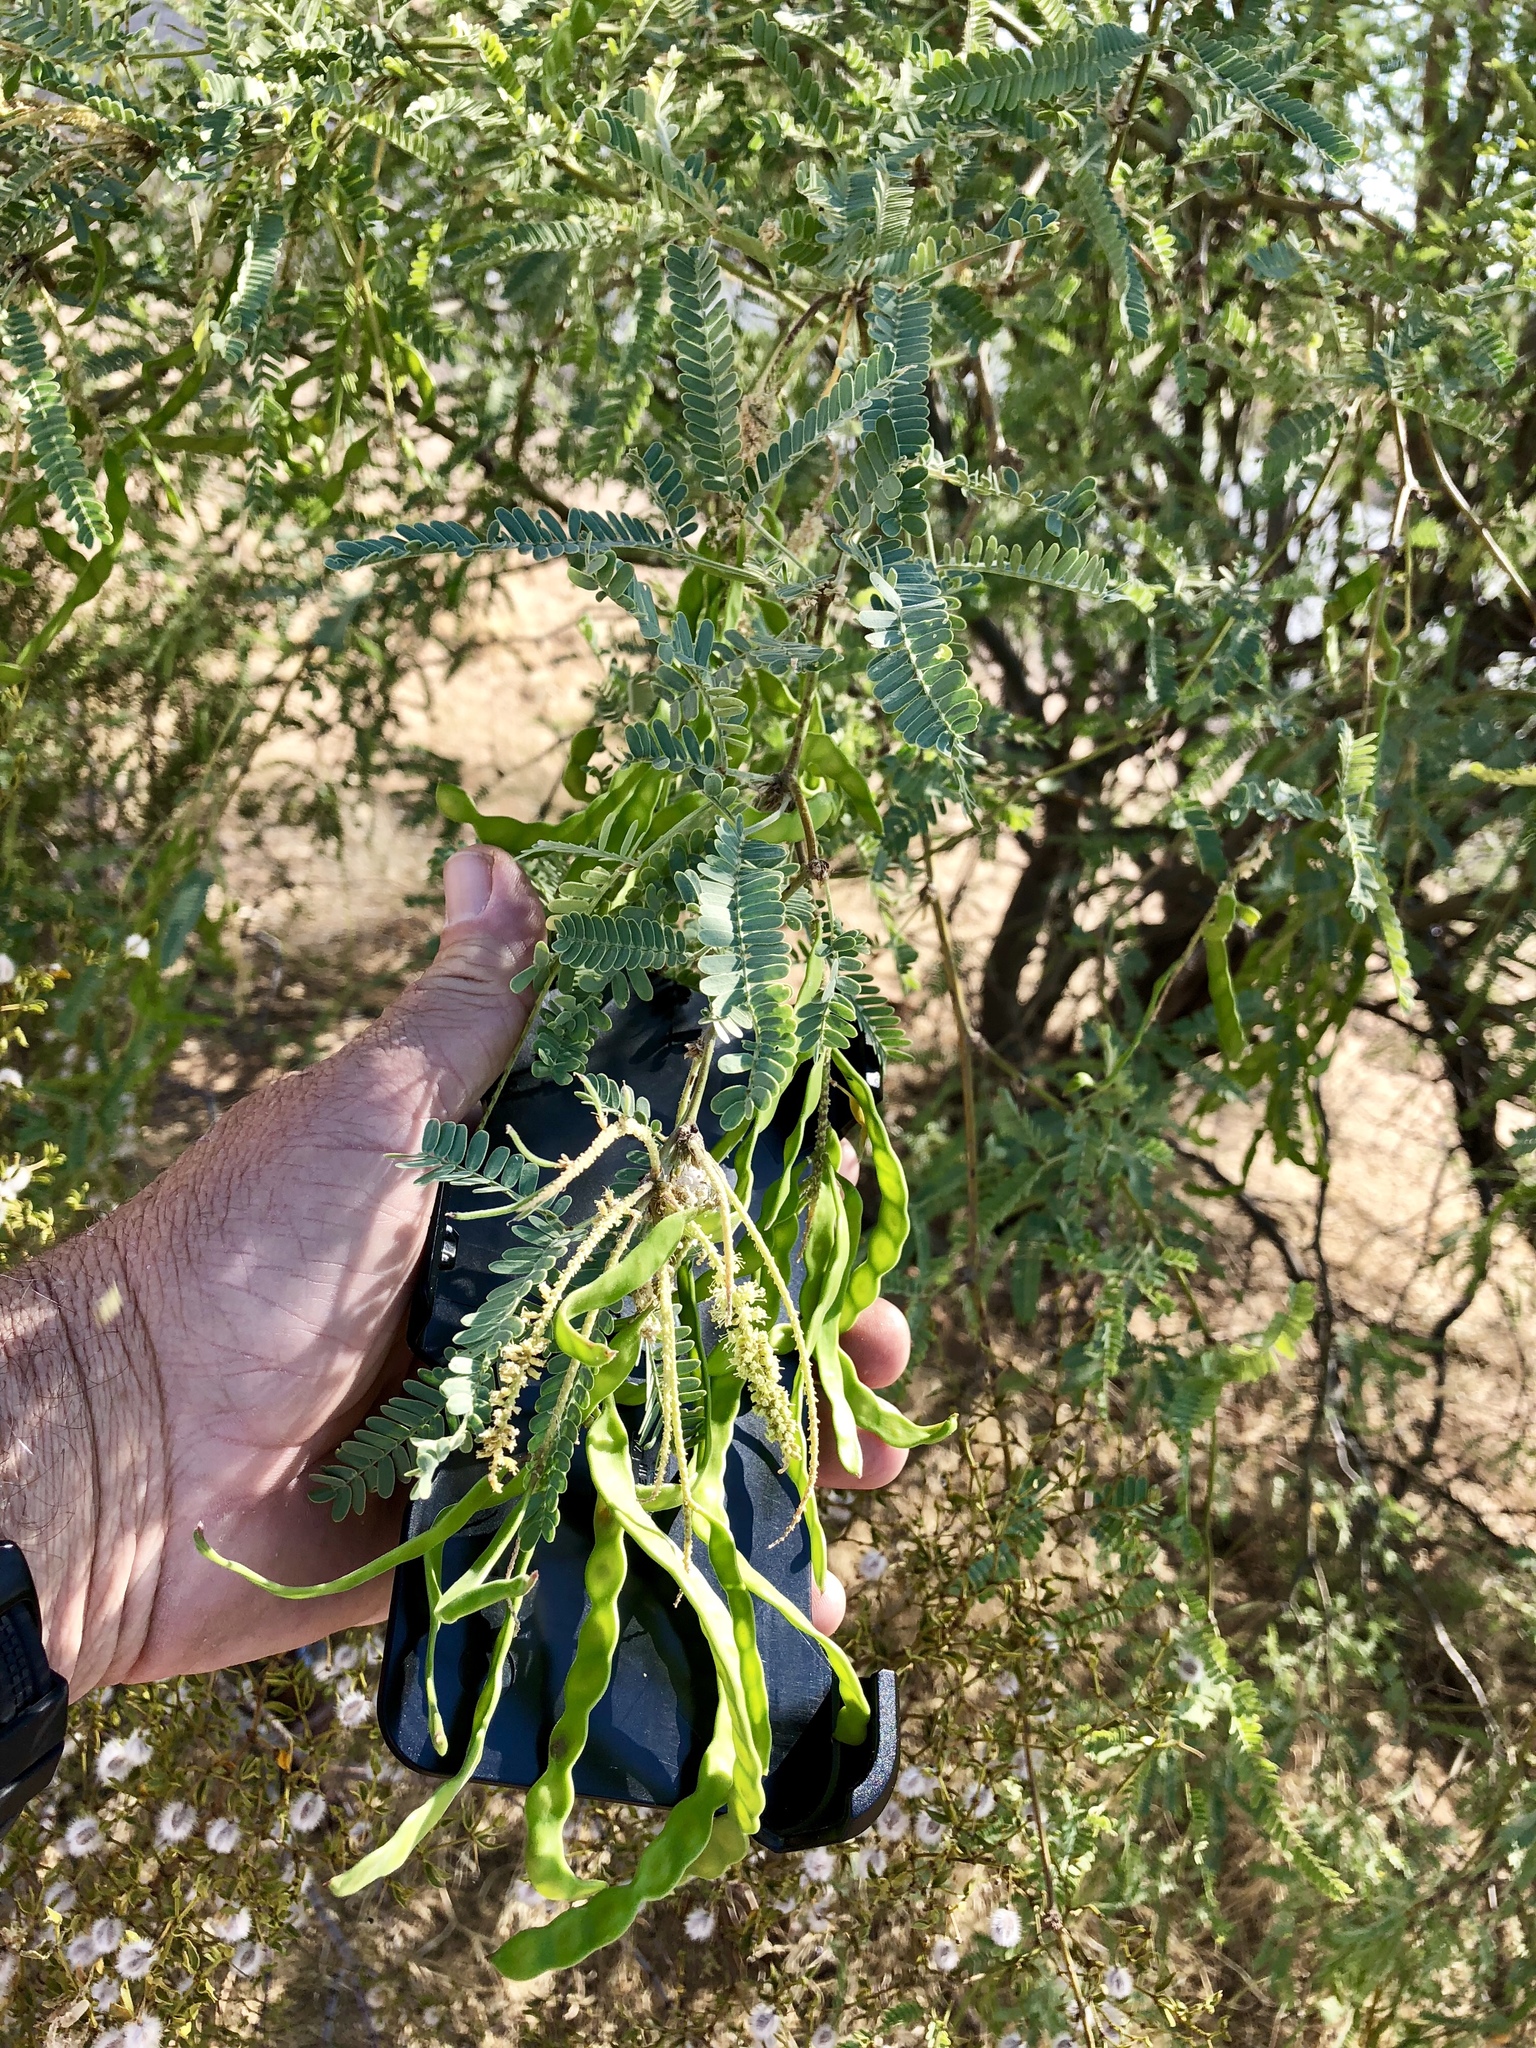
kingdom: Plantae
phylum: Tracheophyta
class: Magnoliopsida
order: Fabales
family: Fabaceae
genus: Prosopis
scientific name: Prosopis velutina
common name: Velvet mesquite
